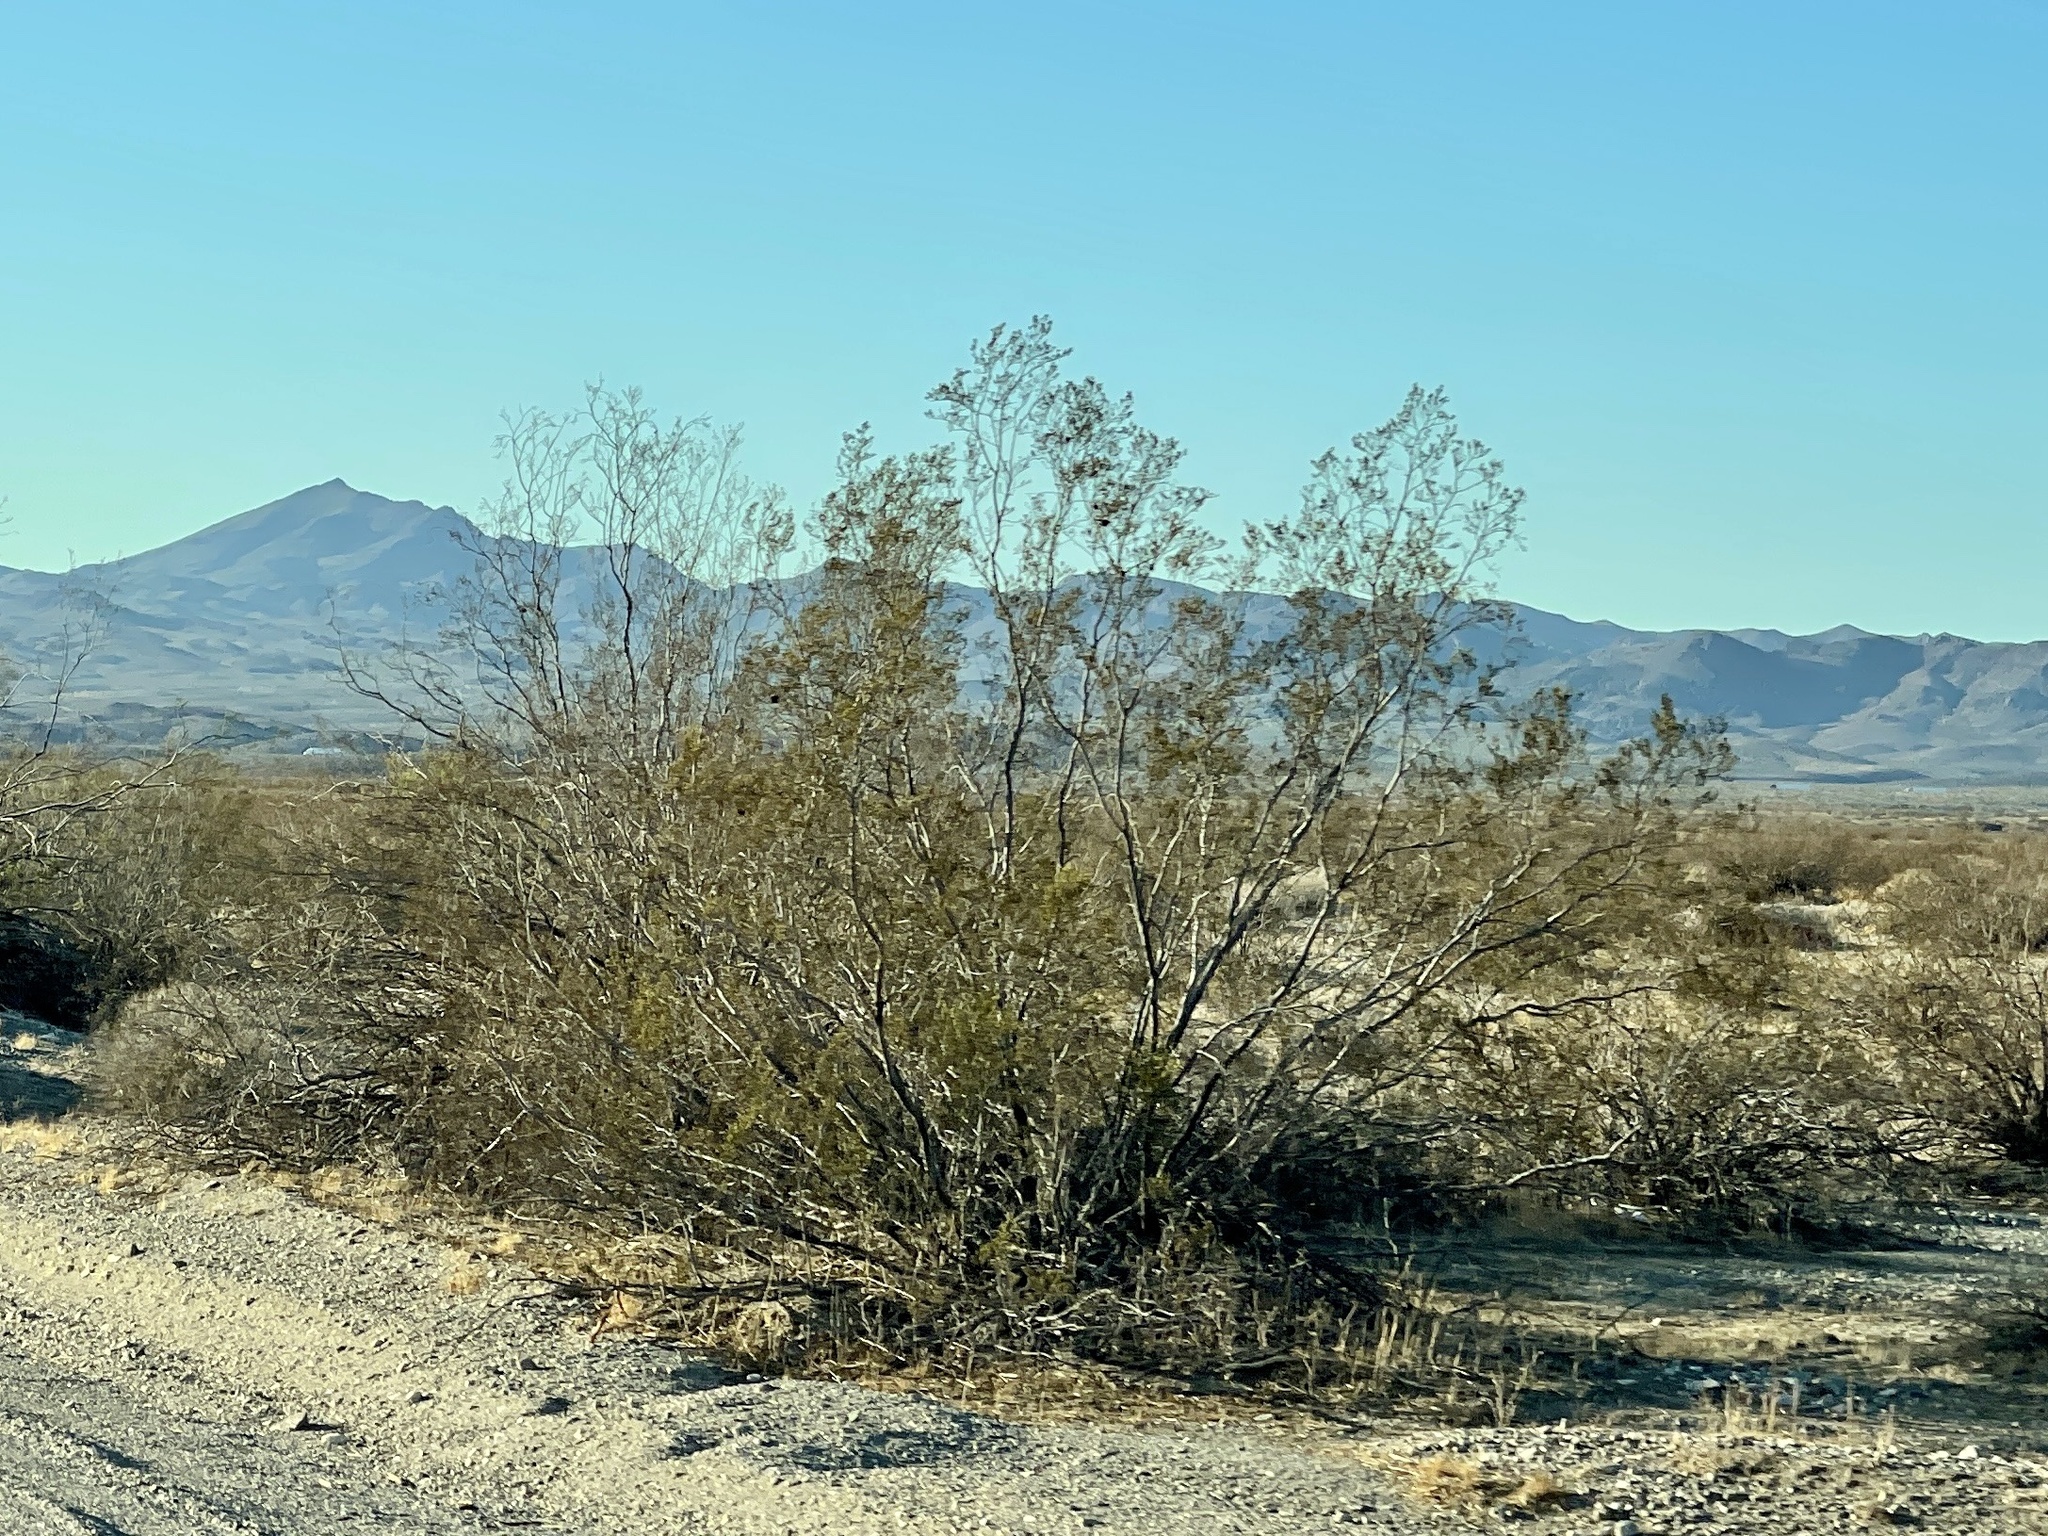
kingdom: Plantae
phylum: Tracheophyta
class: Magnoliopsida
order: Zygophyllales
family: Zygophyllaceae
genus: Larrea
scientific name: Larrea tridentata
